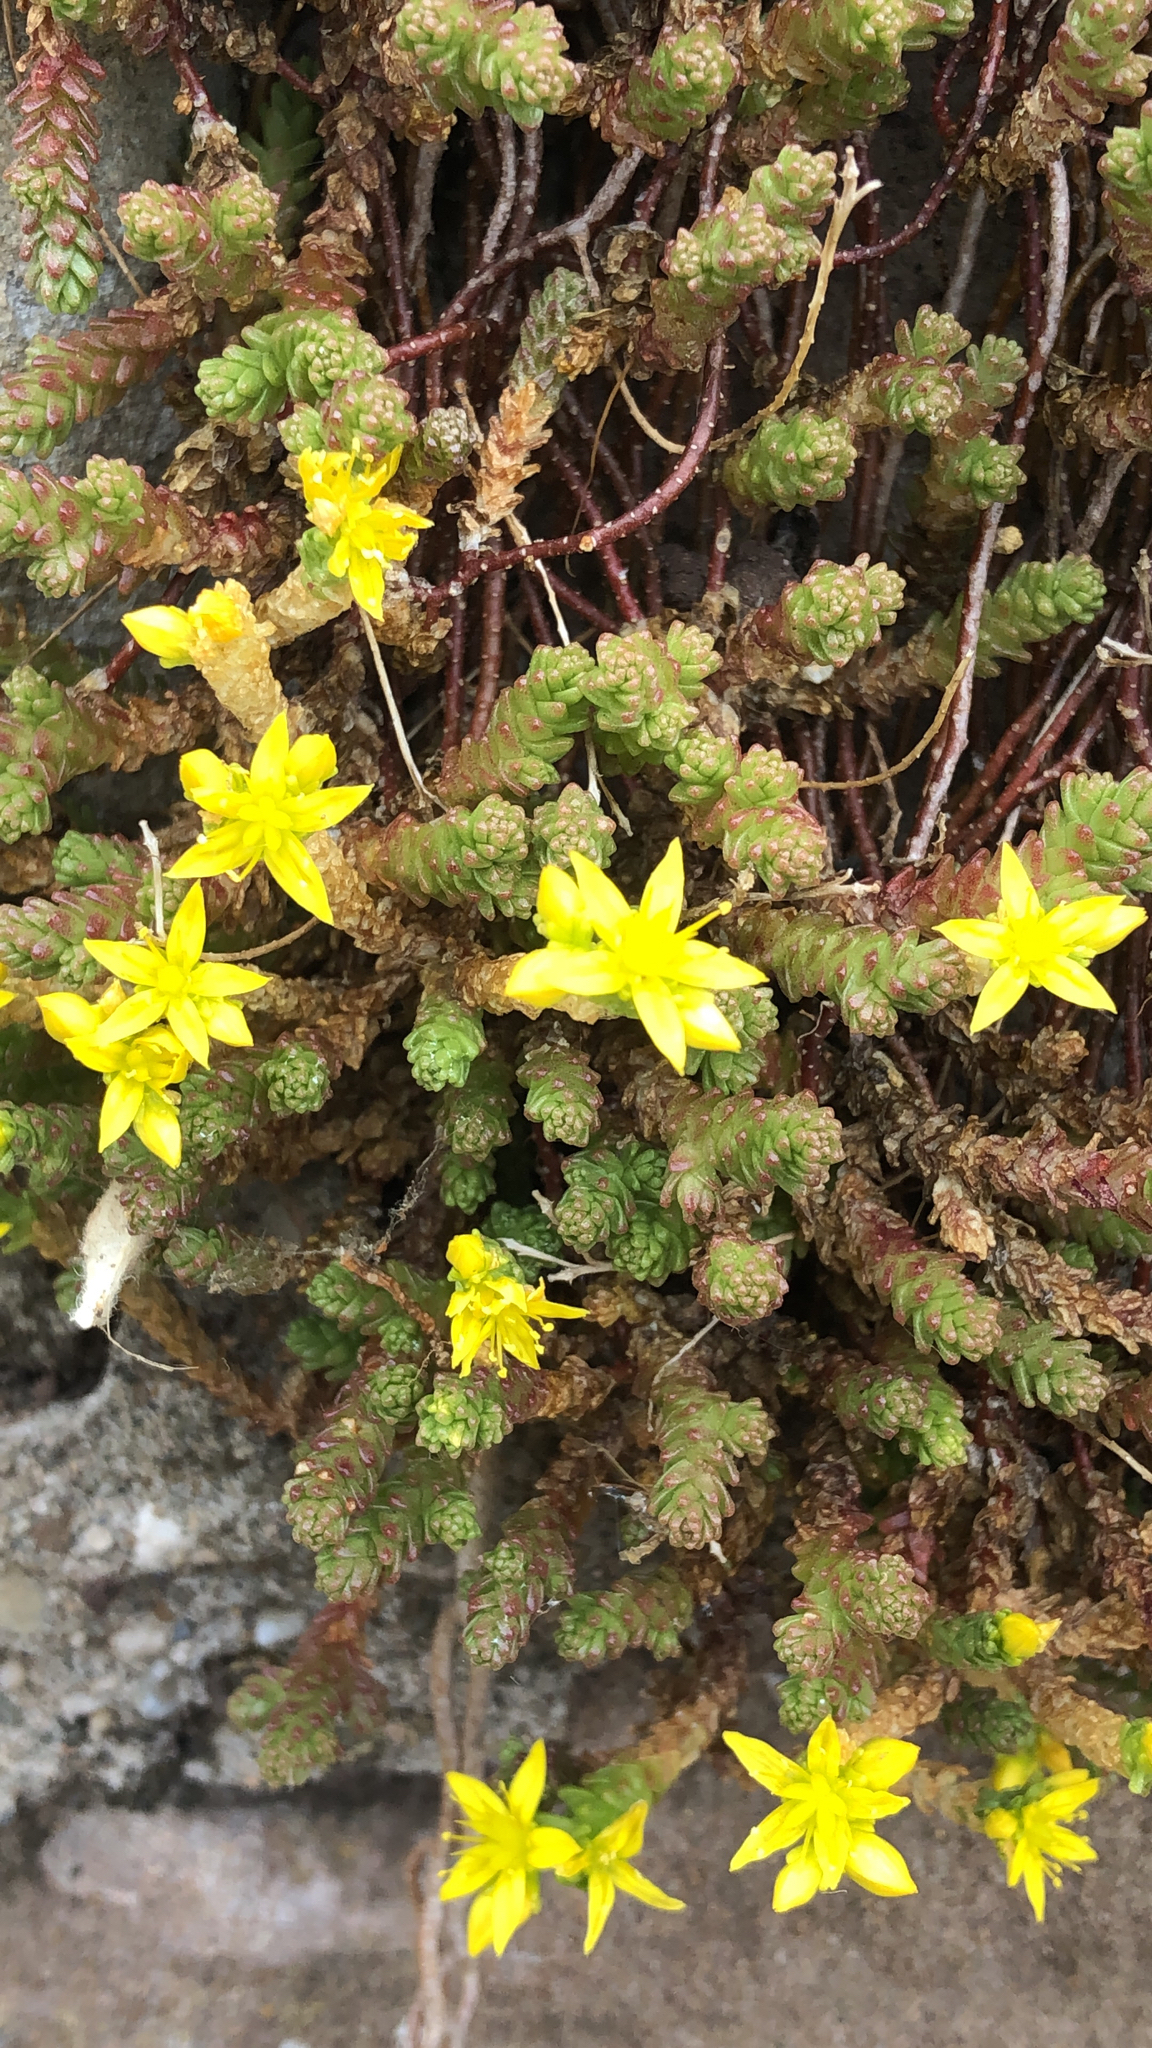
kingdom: Plantae
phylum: Tracheophyta
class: Magnoliopsida
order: Saxifragales
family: Crassulaceae
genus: Sedum
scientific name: Sedum acre
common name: Biting stonecrop
